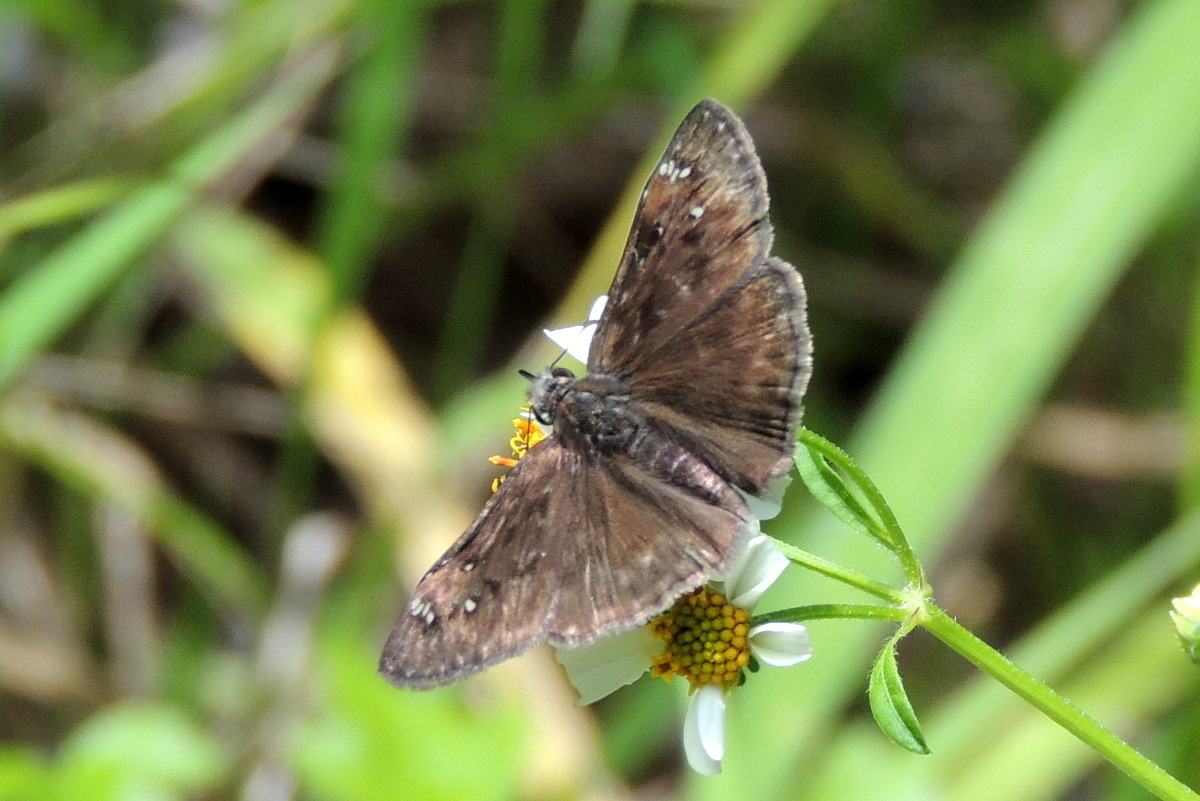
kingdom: Animalia
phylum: Arthropoda
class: Insecta
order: Lepidoptera
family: Hesperiidae
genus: Erynnis
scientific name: Erynnis horatius
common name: Horace's duskywing
